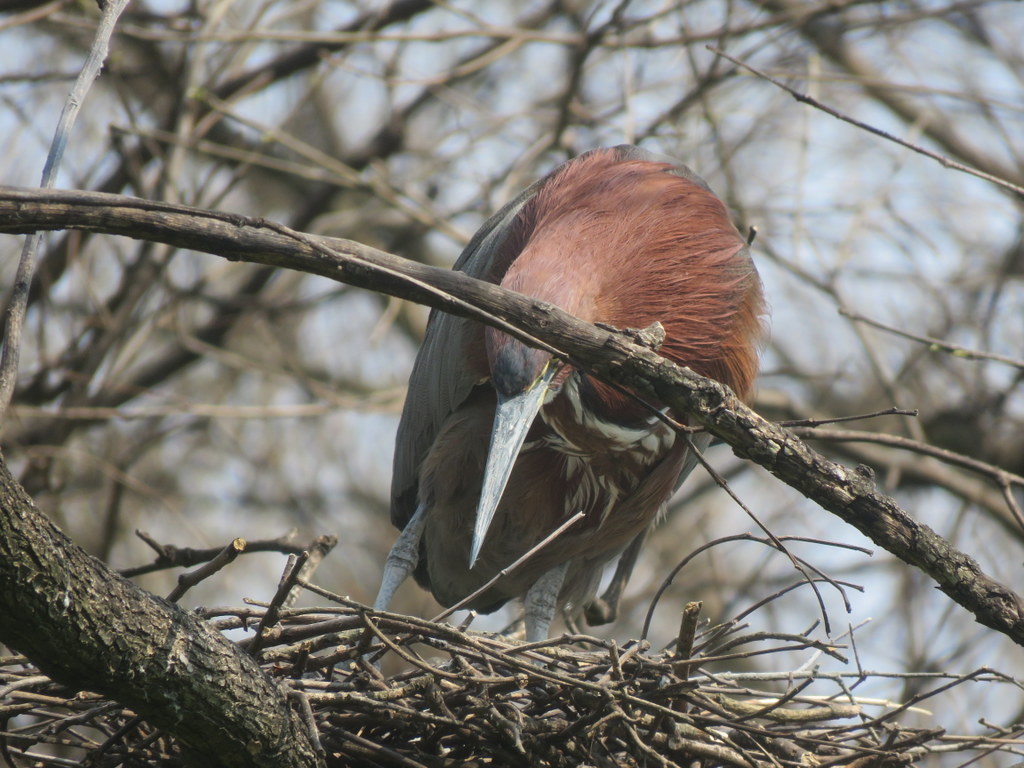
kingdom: Animalia
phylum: Chordata
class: Aves
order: Pelecaniformes
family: Ardeidae
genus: Tigrisoma
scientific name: Tigrisoma lineatum
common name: Rufescent tiger-heron
